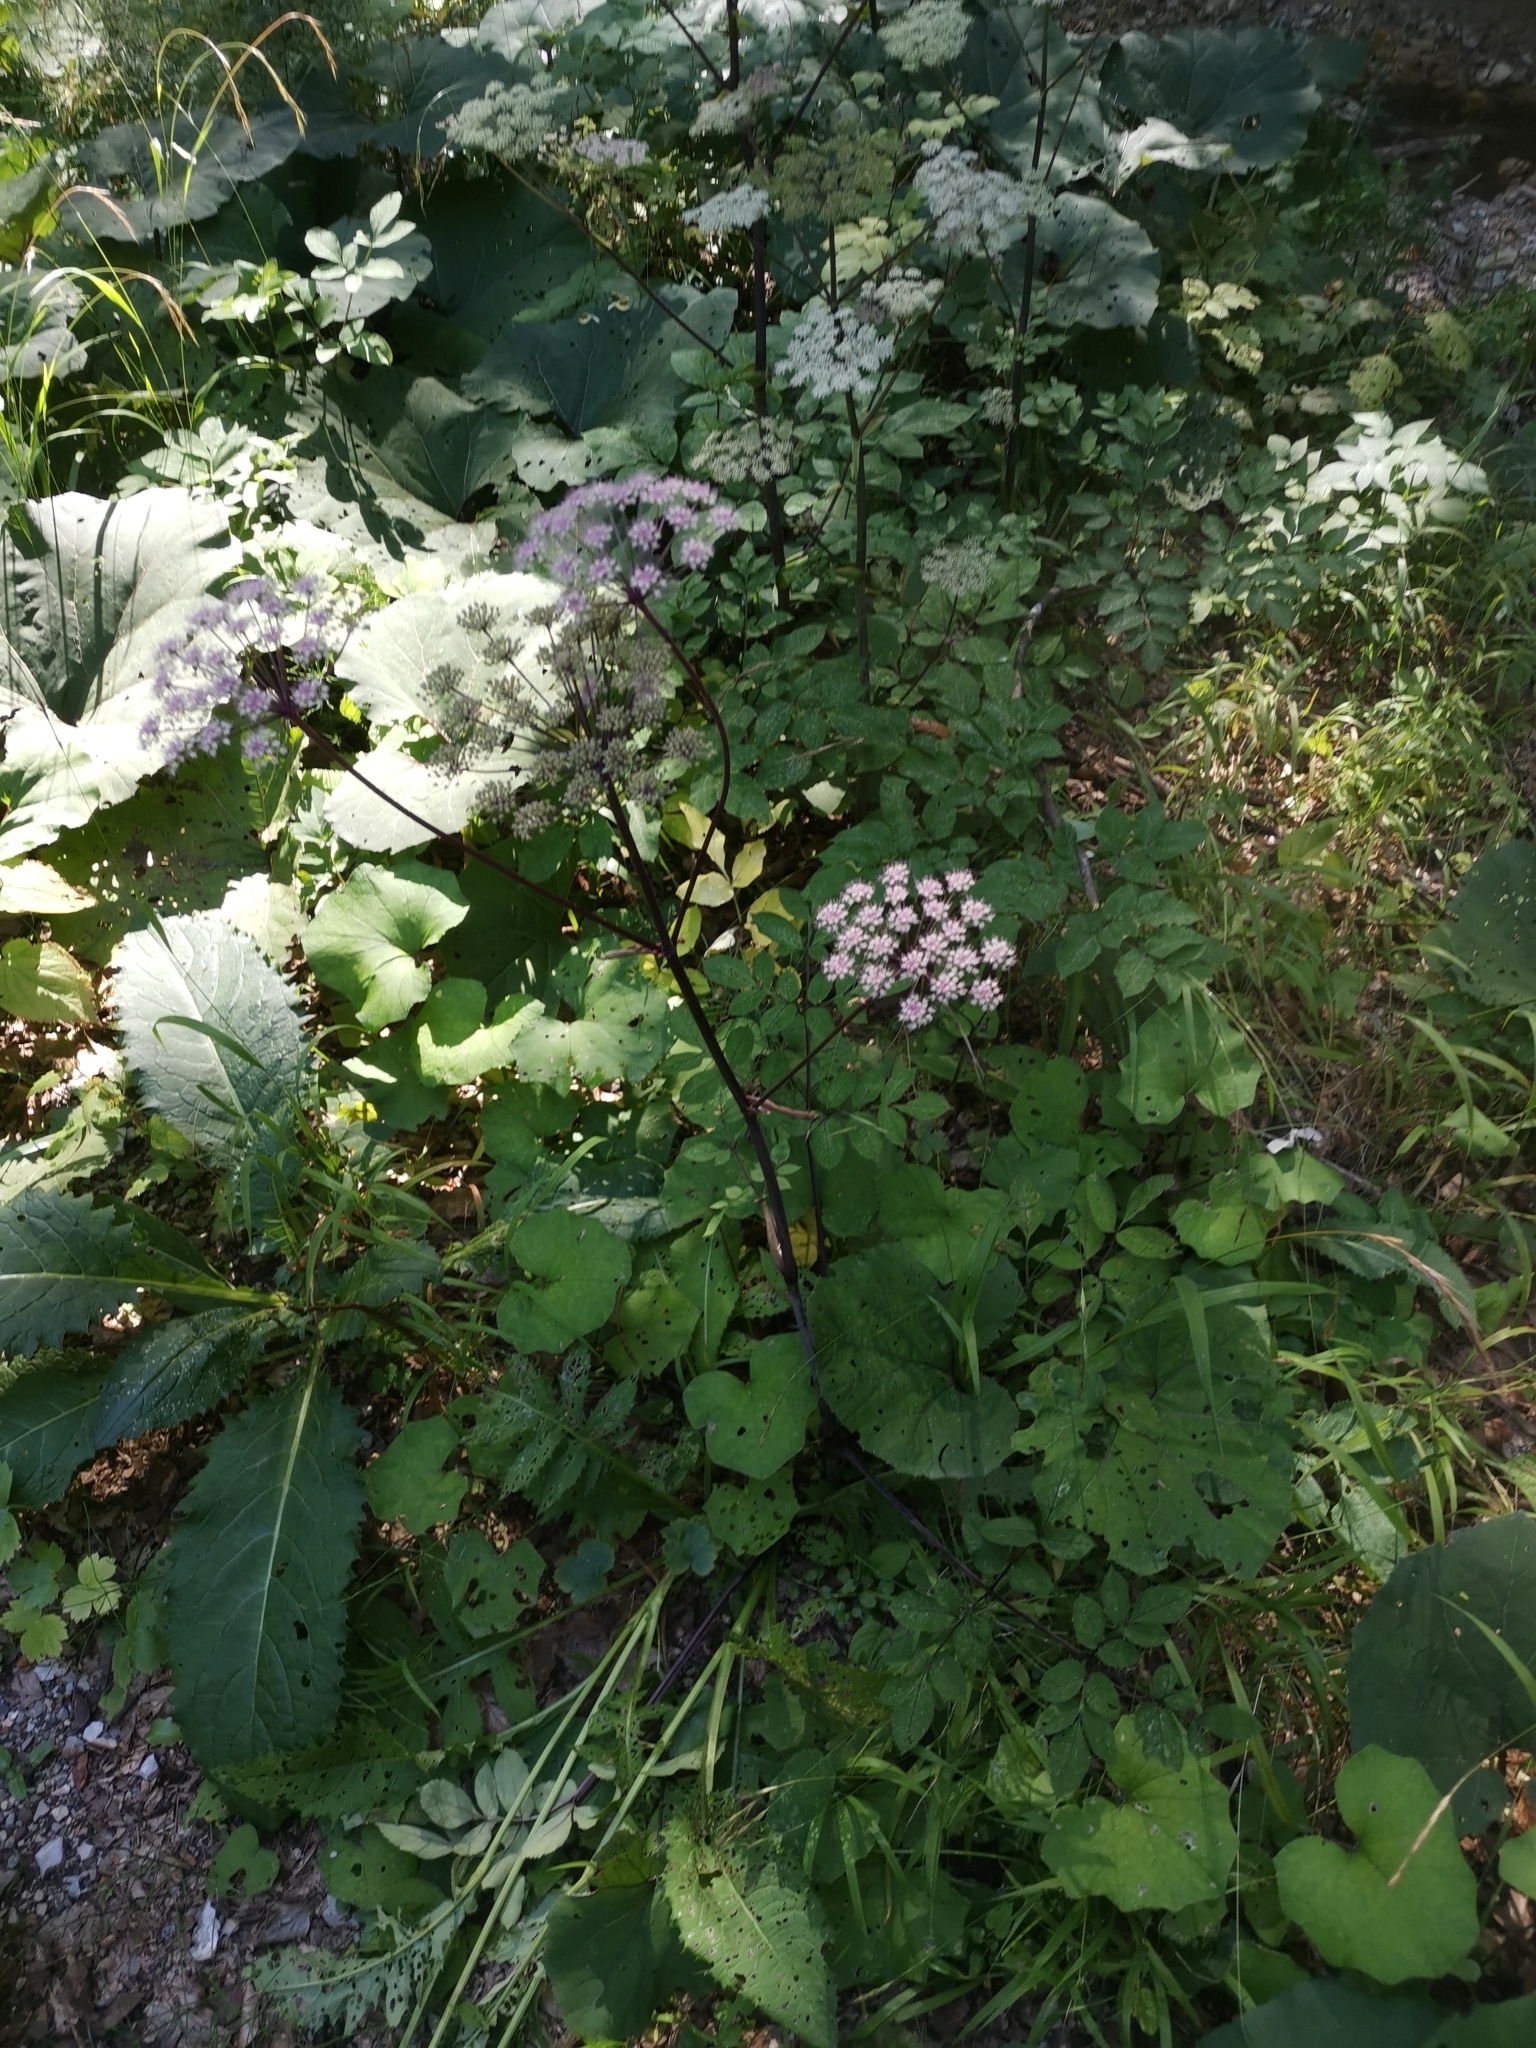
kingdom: Plantae
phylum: Tracheophyta
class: Magnoliopsida
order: Apiales
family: Apiaceae
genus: Angelica
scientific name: Angelica sylvestris
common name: Wild angelica
